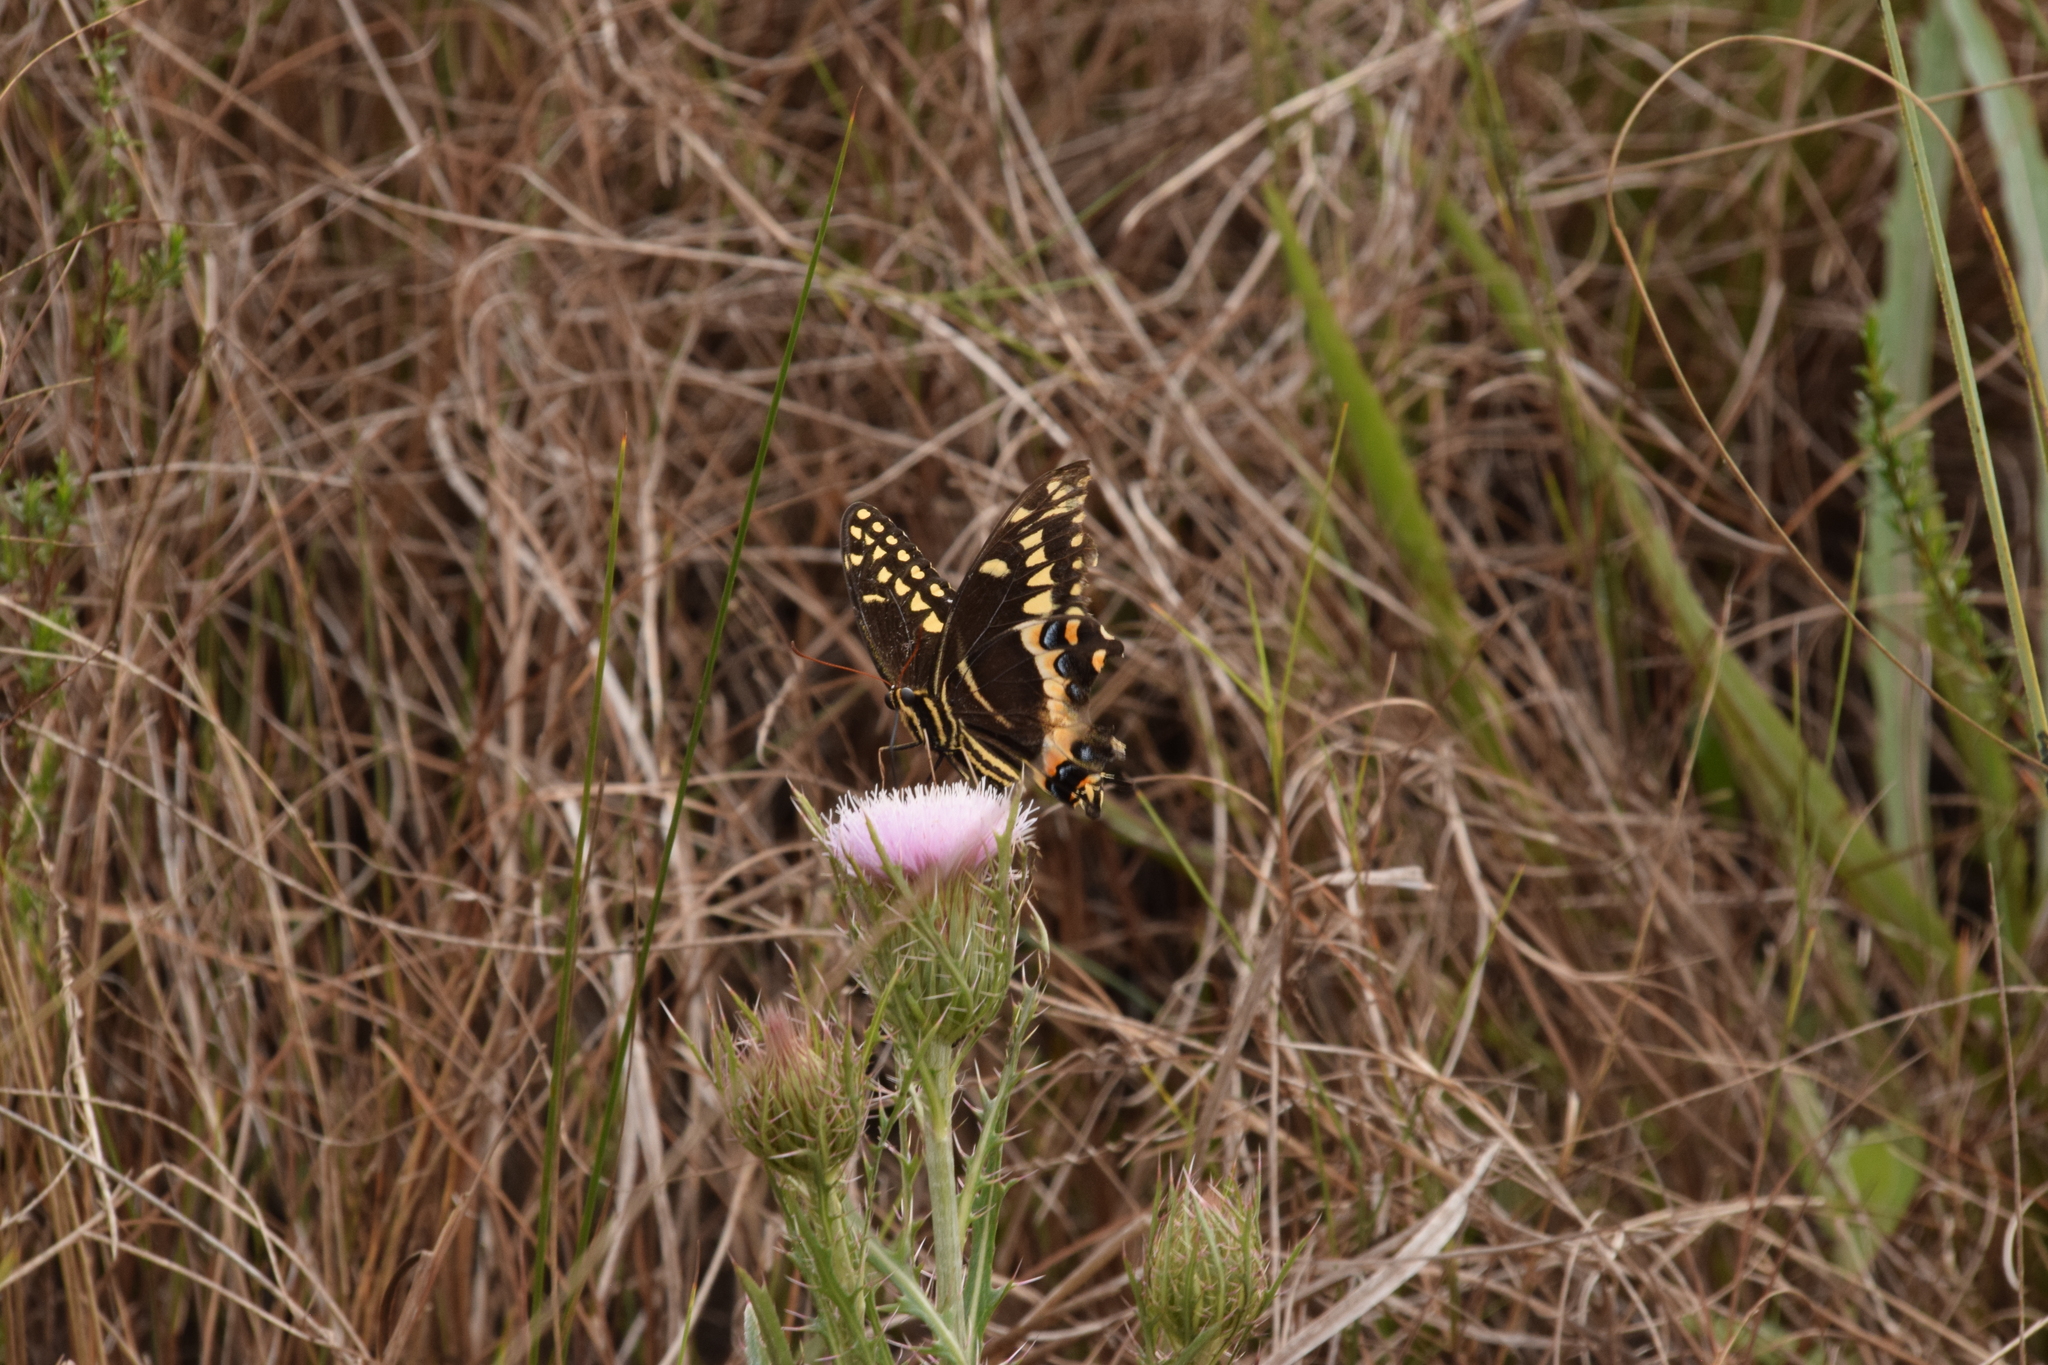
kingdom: Animalia
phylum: Arthropoda
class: Insecta
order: Lepidoptera
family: Papilionidae
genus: Papilio
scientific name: Papilio palamedes
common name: Palamedes swallowtail
